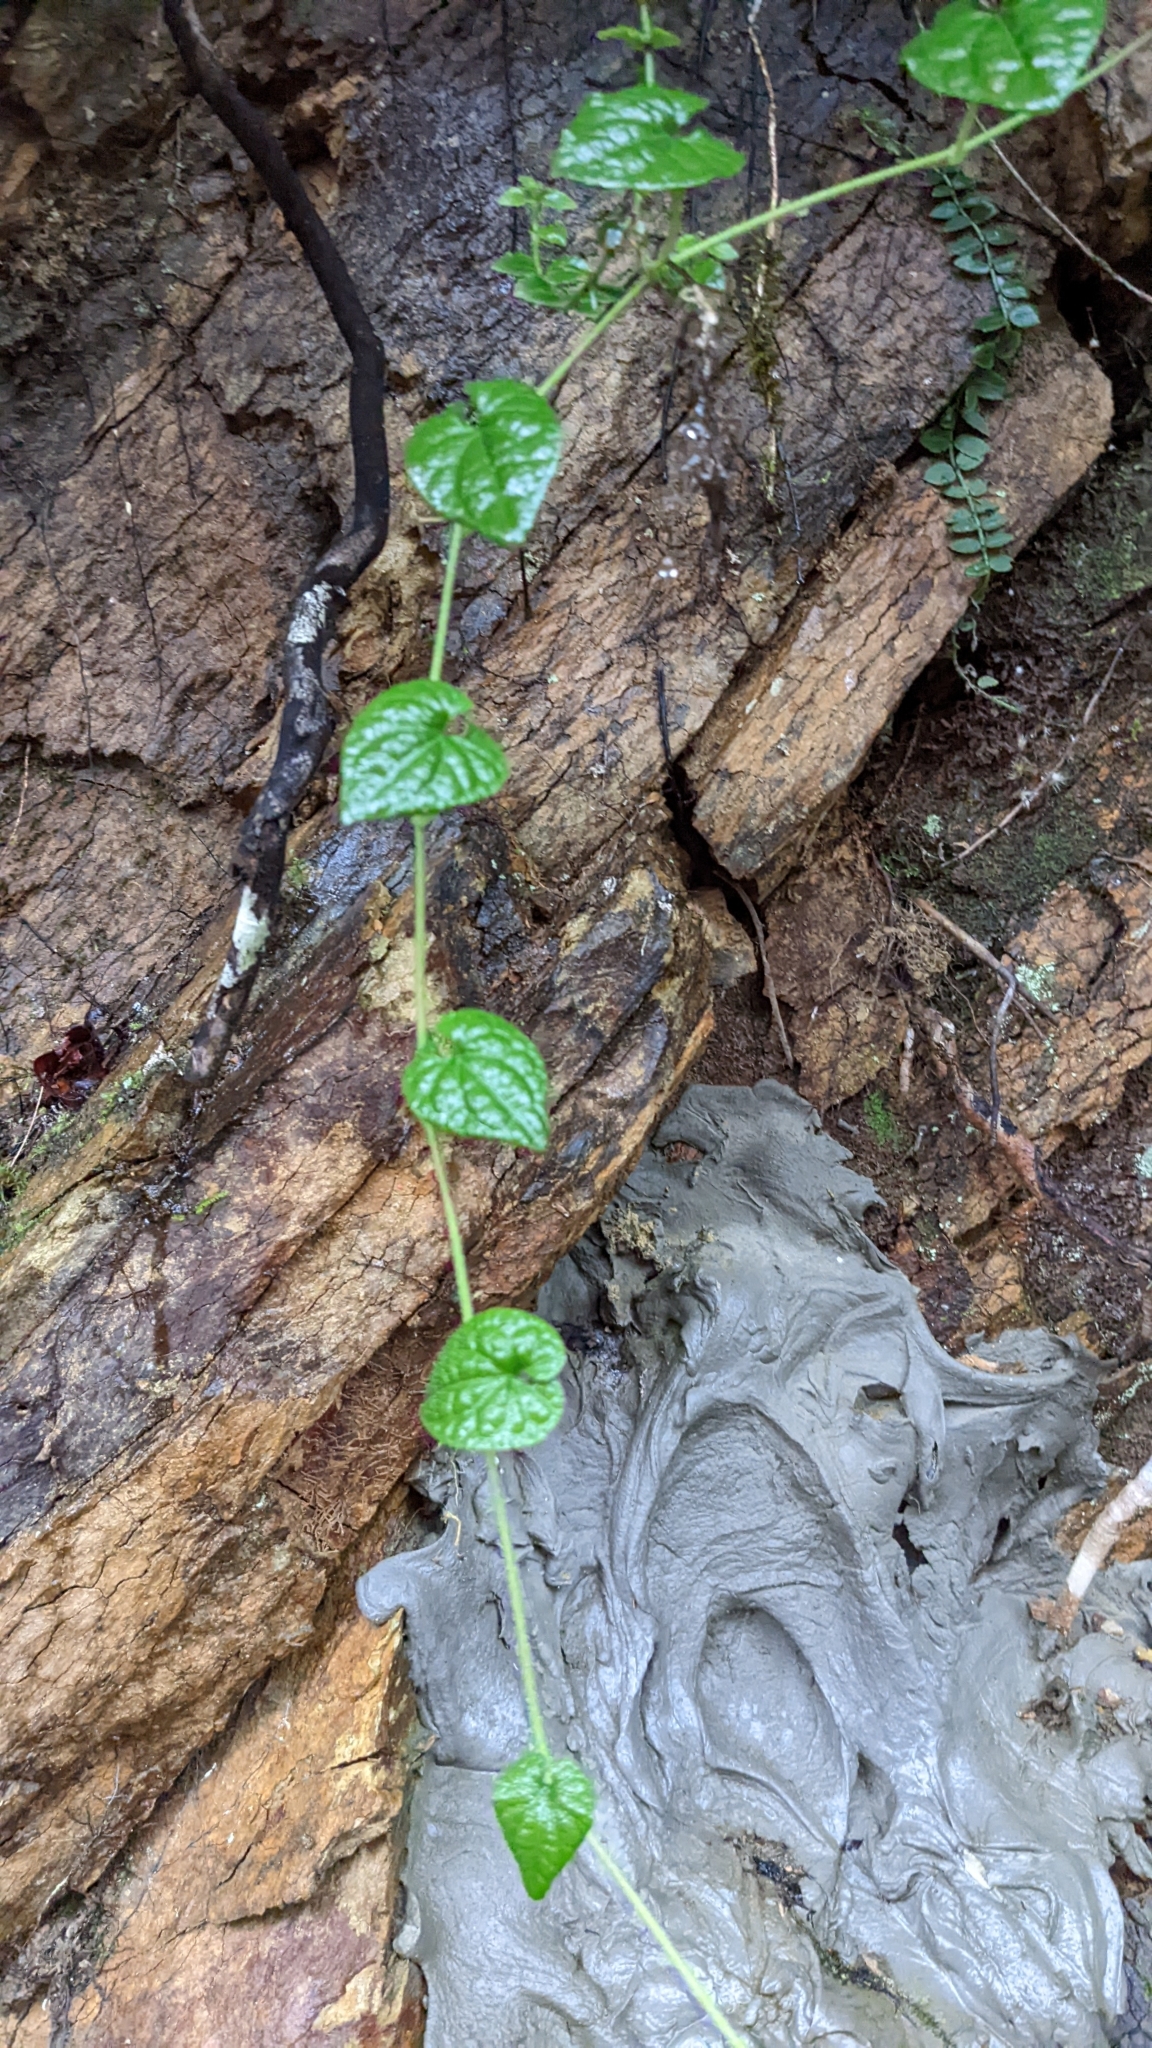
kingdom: Plantae
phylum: Tracheophyta
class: Magnoliopsida
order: Piperales
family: Piperaceae
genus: Piper
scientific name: Piper sintenense
